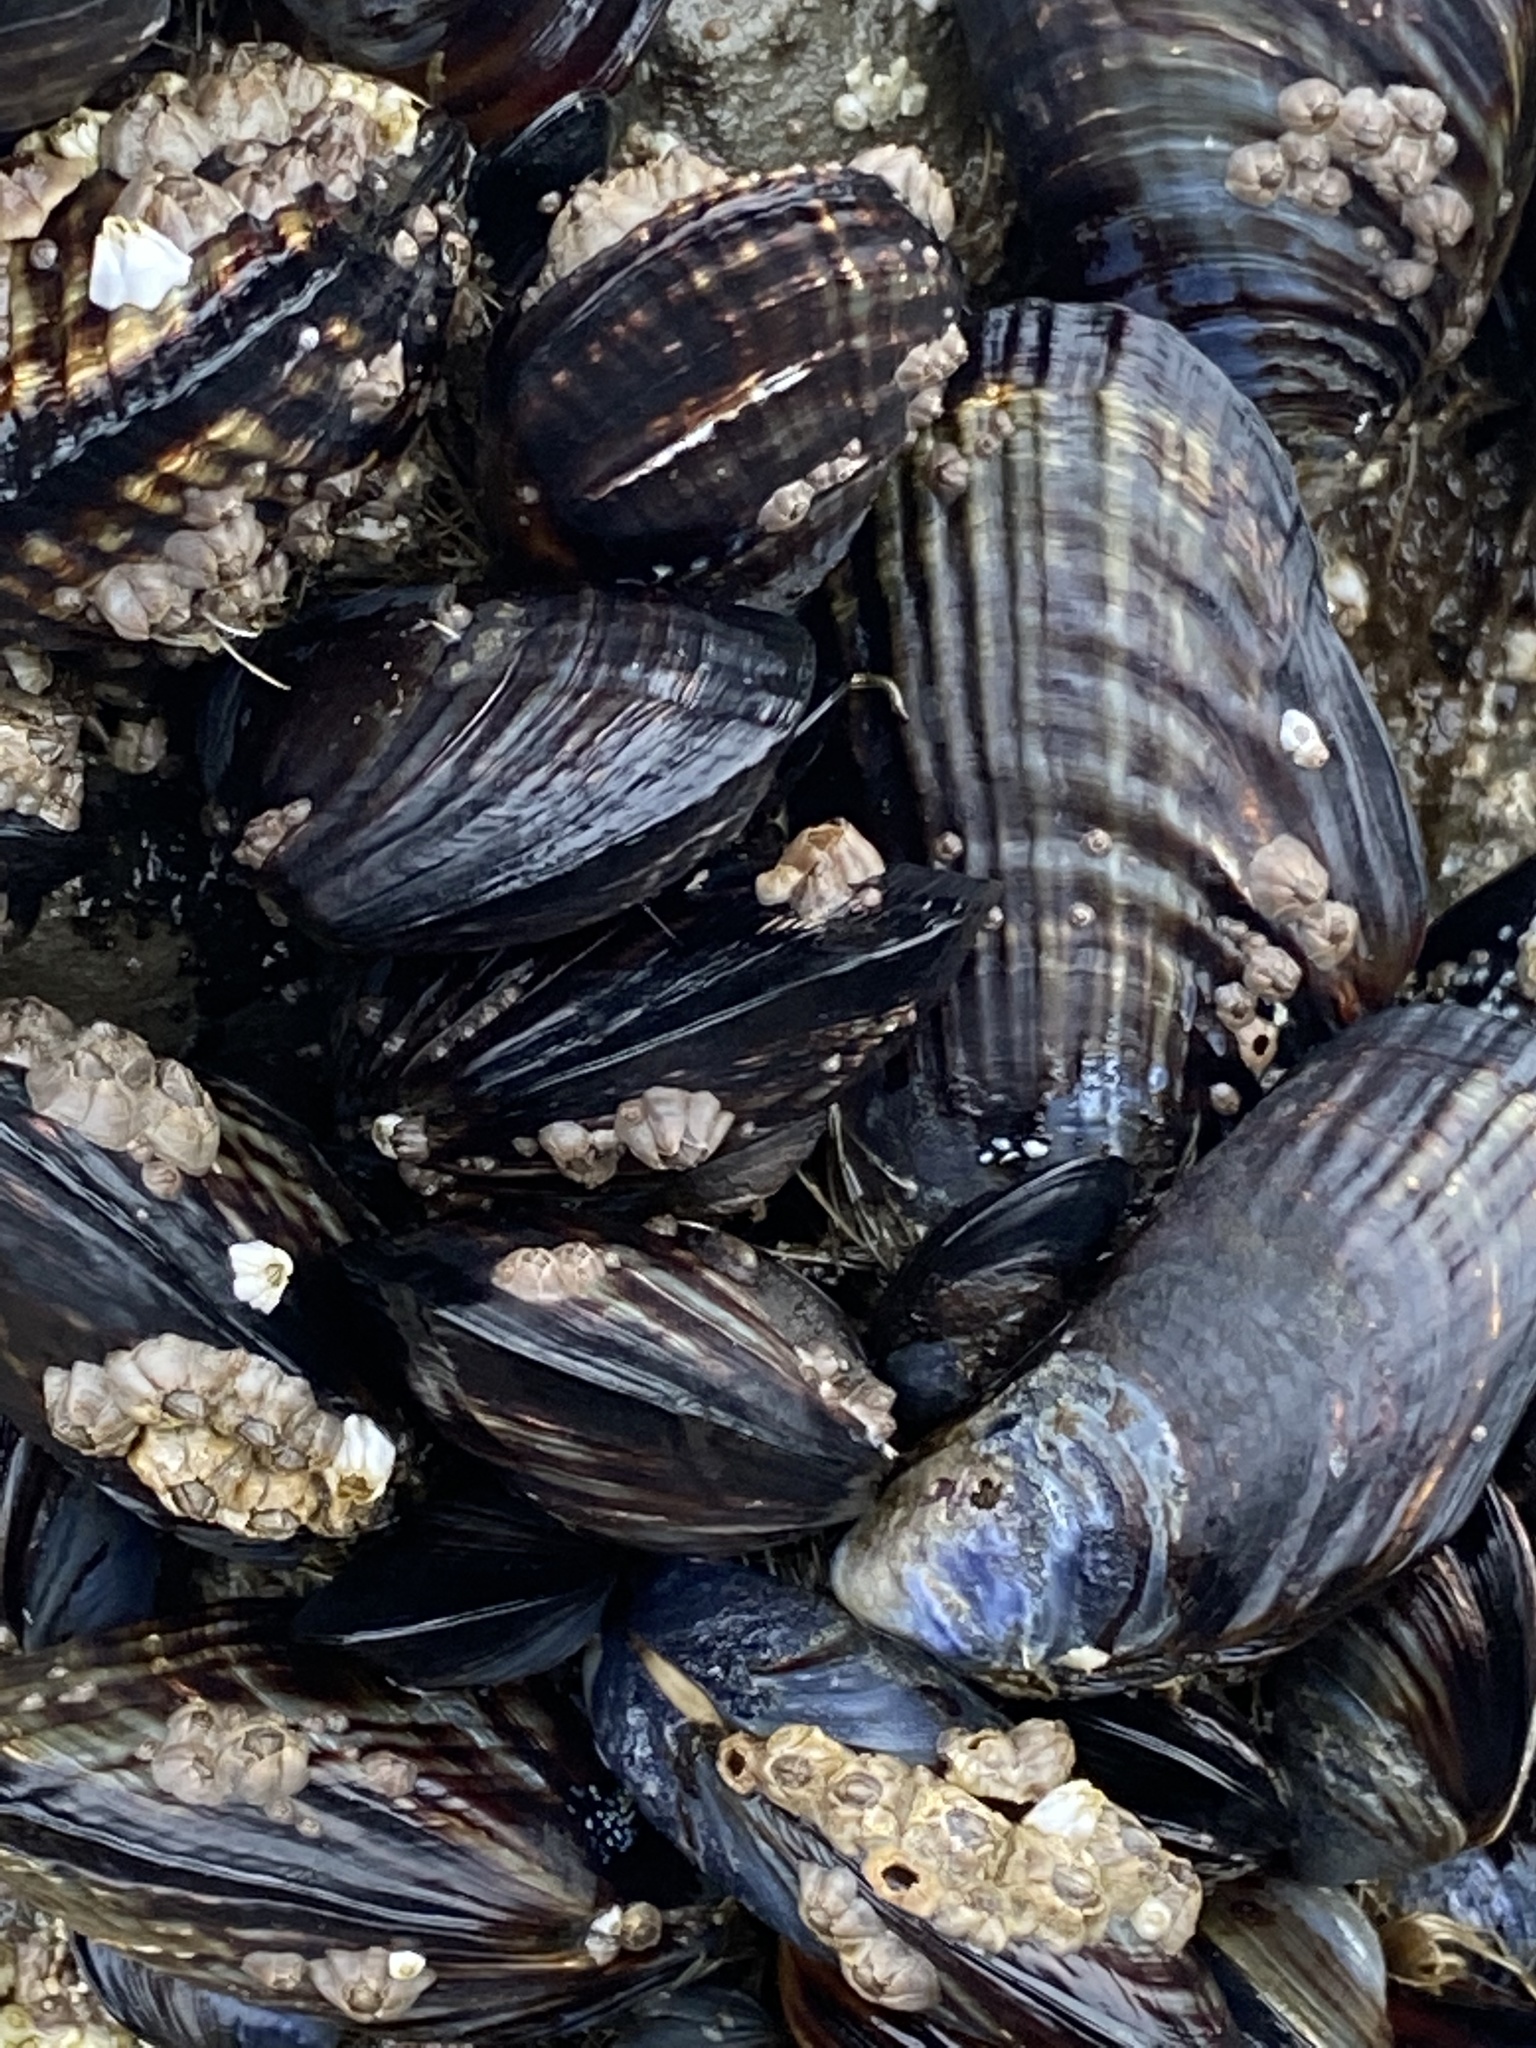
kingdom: Animalia
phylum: Mollusca
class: Bivalvia
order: Mytilida
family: Mytilidae
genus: Mytilus
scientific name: Mytilus californianus
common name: California mussel
